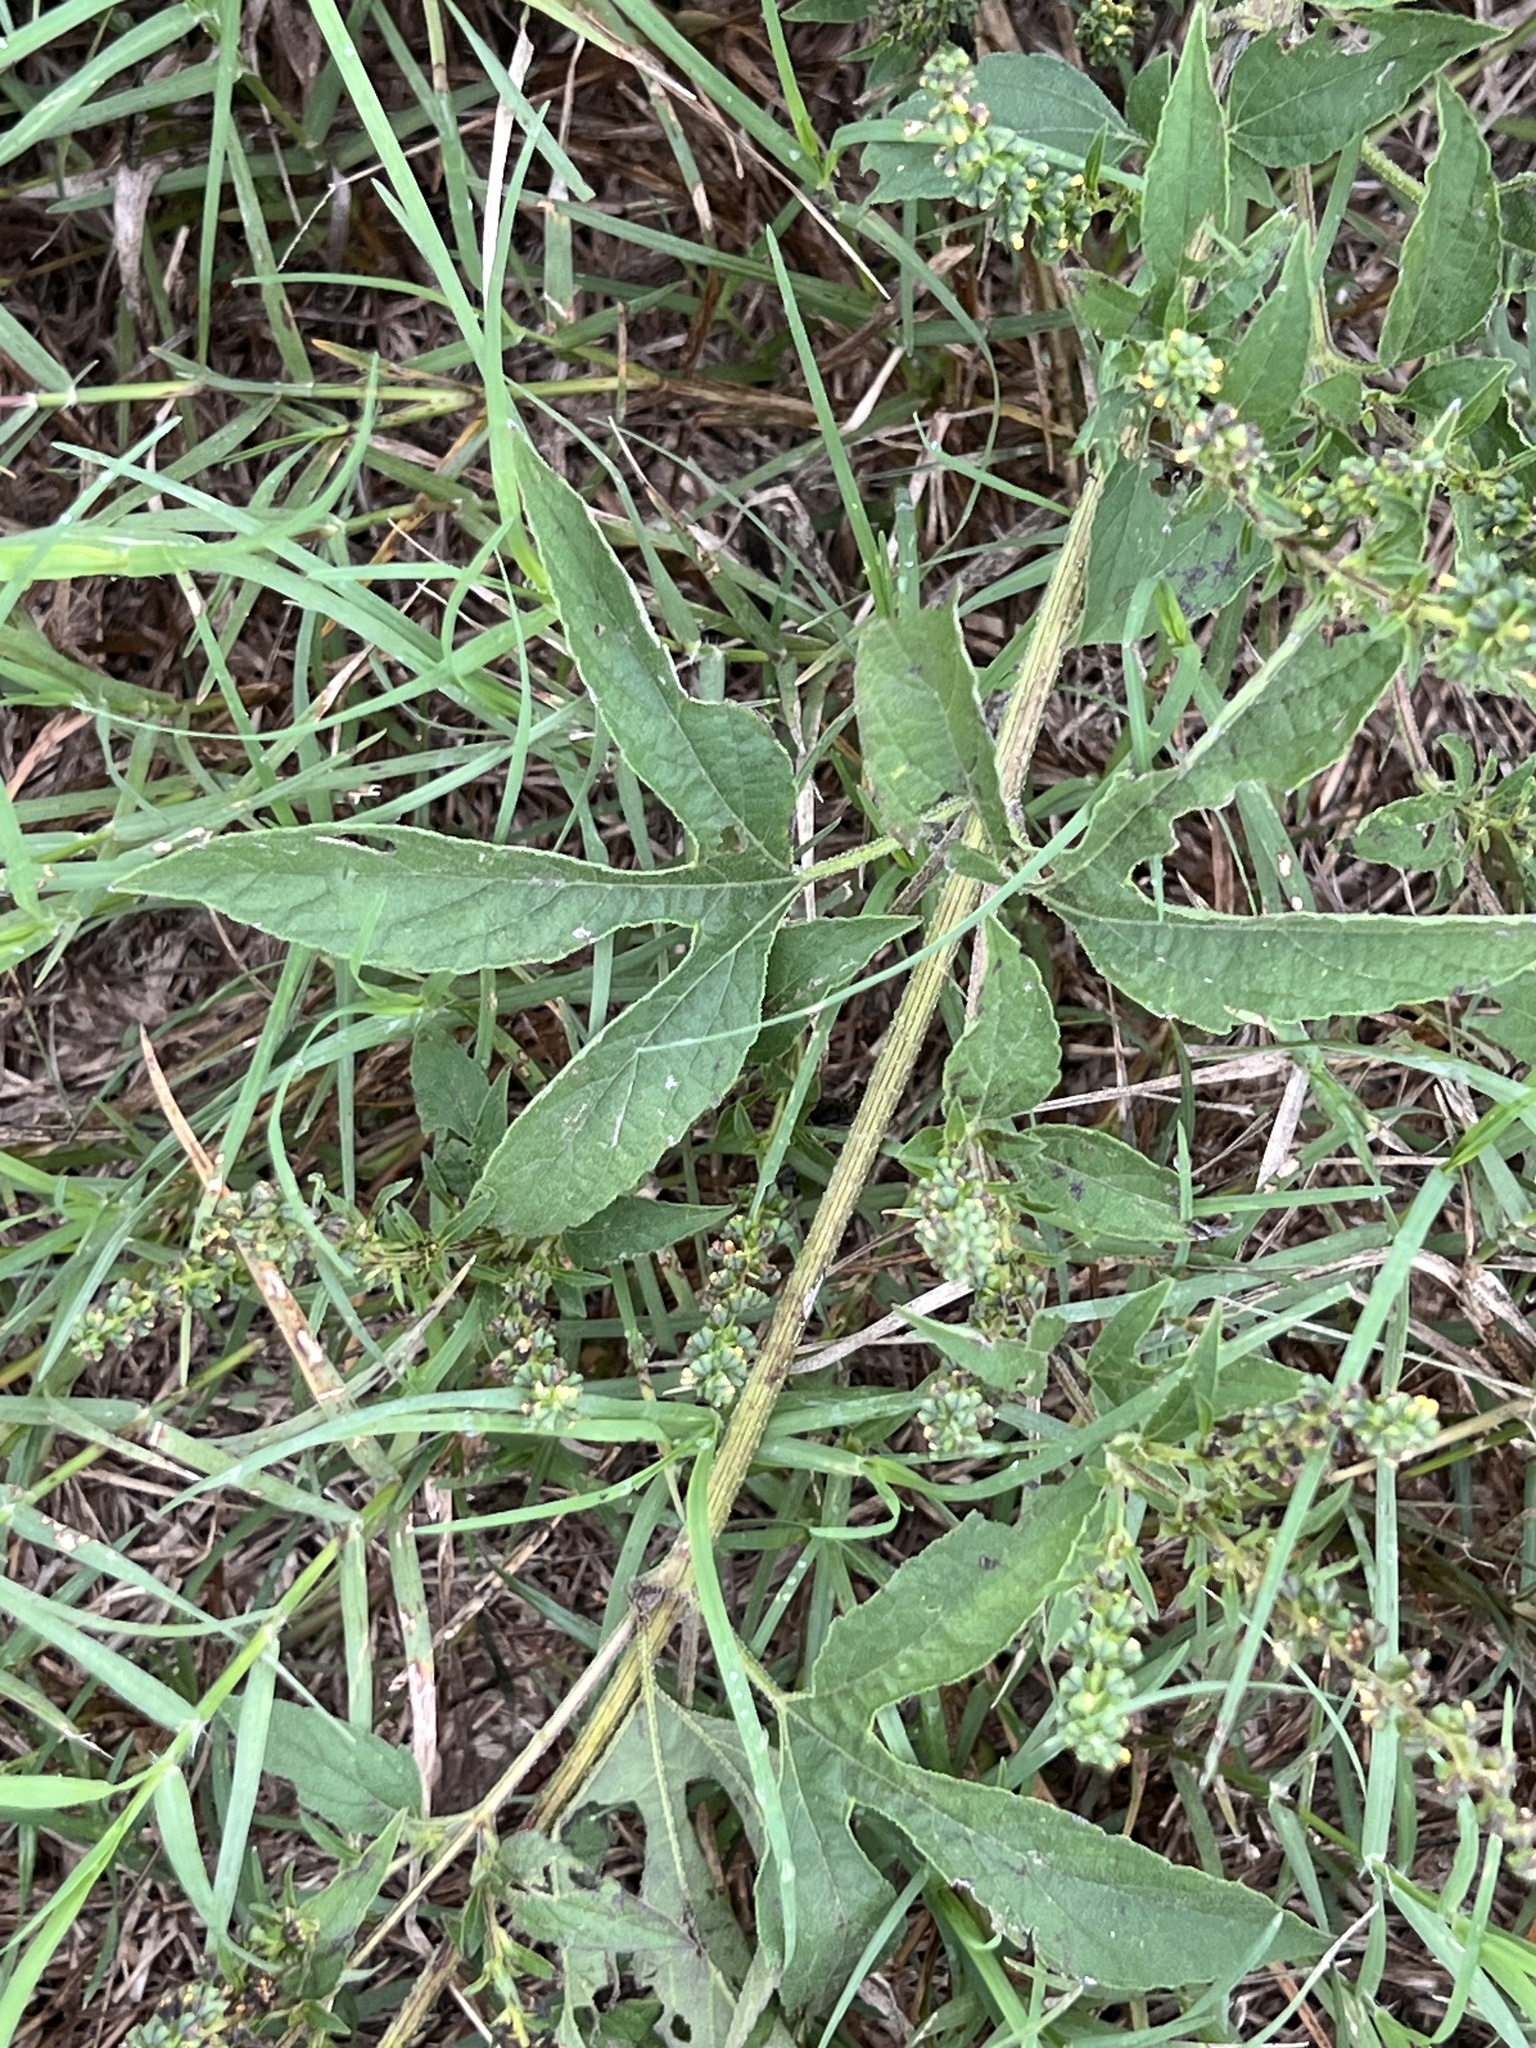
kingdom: Plantae
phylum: Tracheophyta
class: Magnoliopsida
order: Asterales
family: Asteraceae
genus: Ambrosia
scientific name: Ambrosia trifida
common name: Giant ragweed
